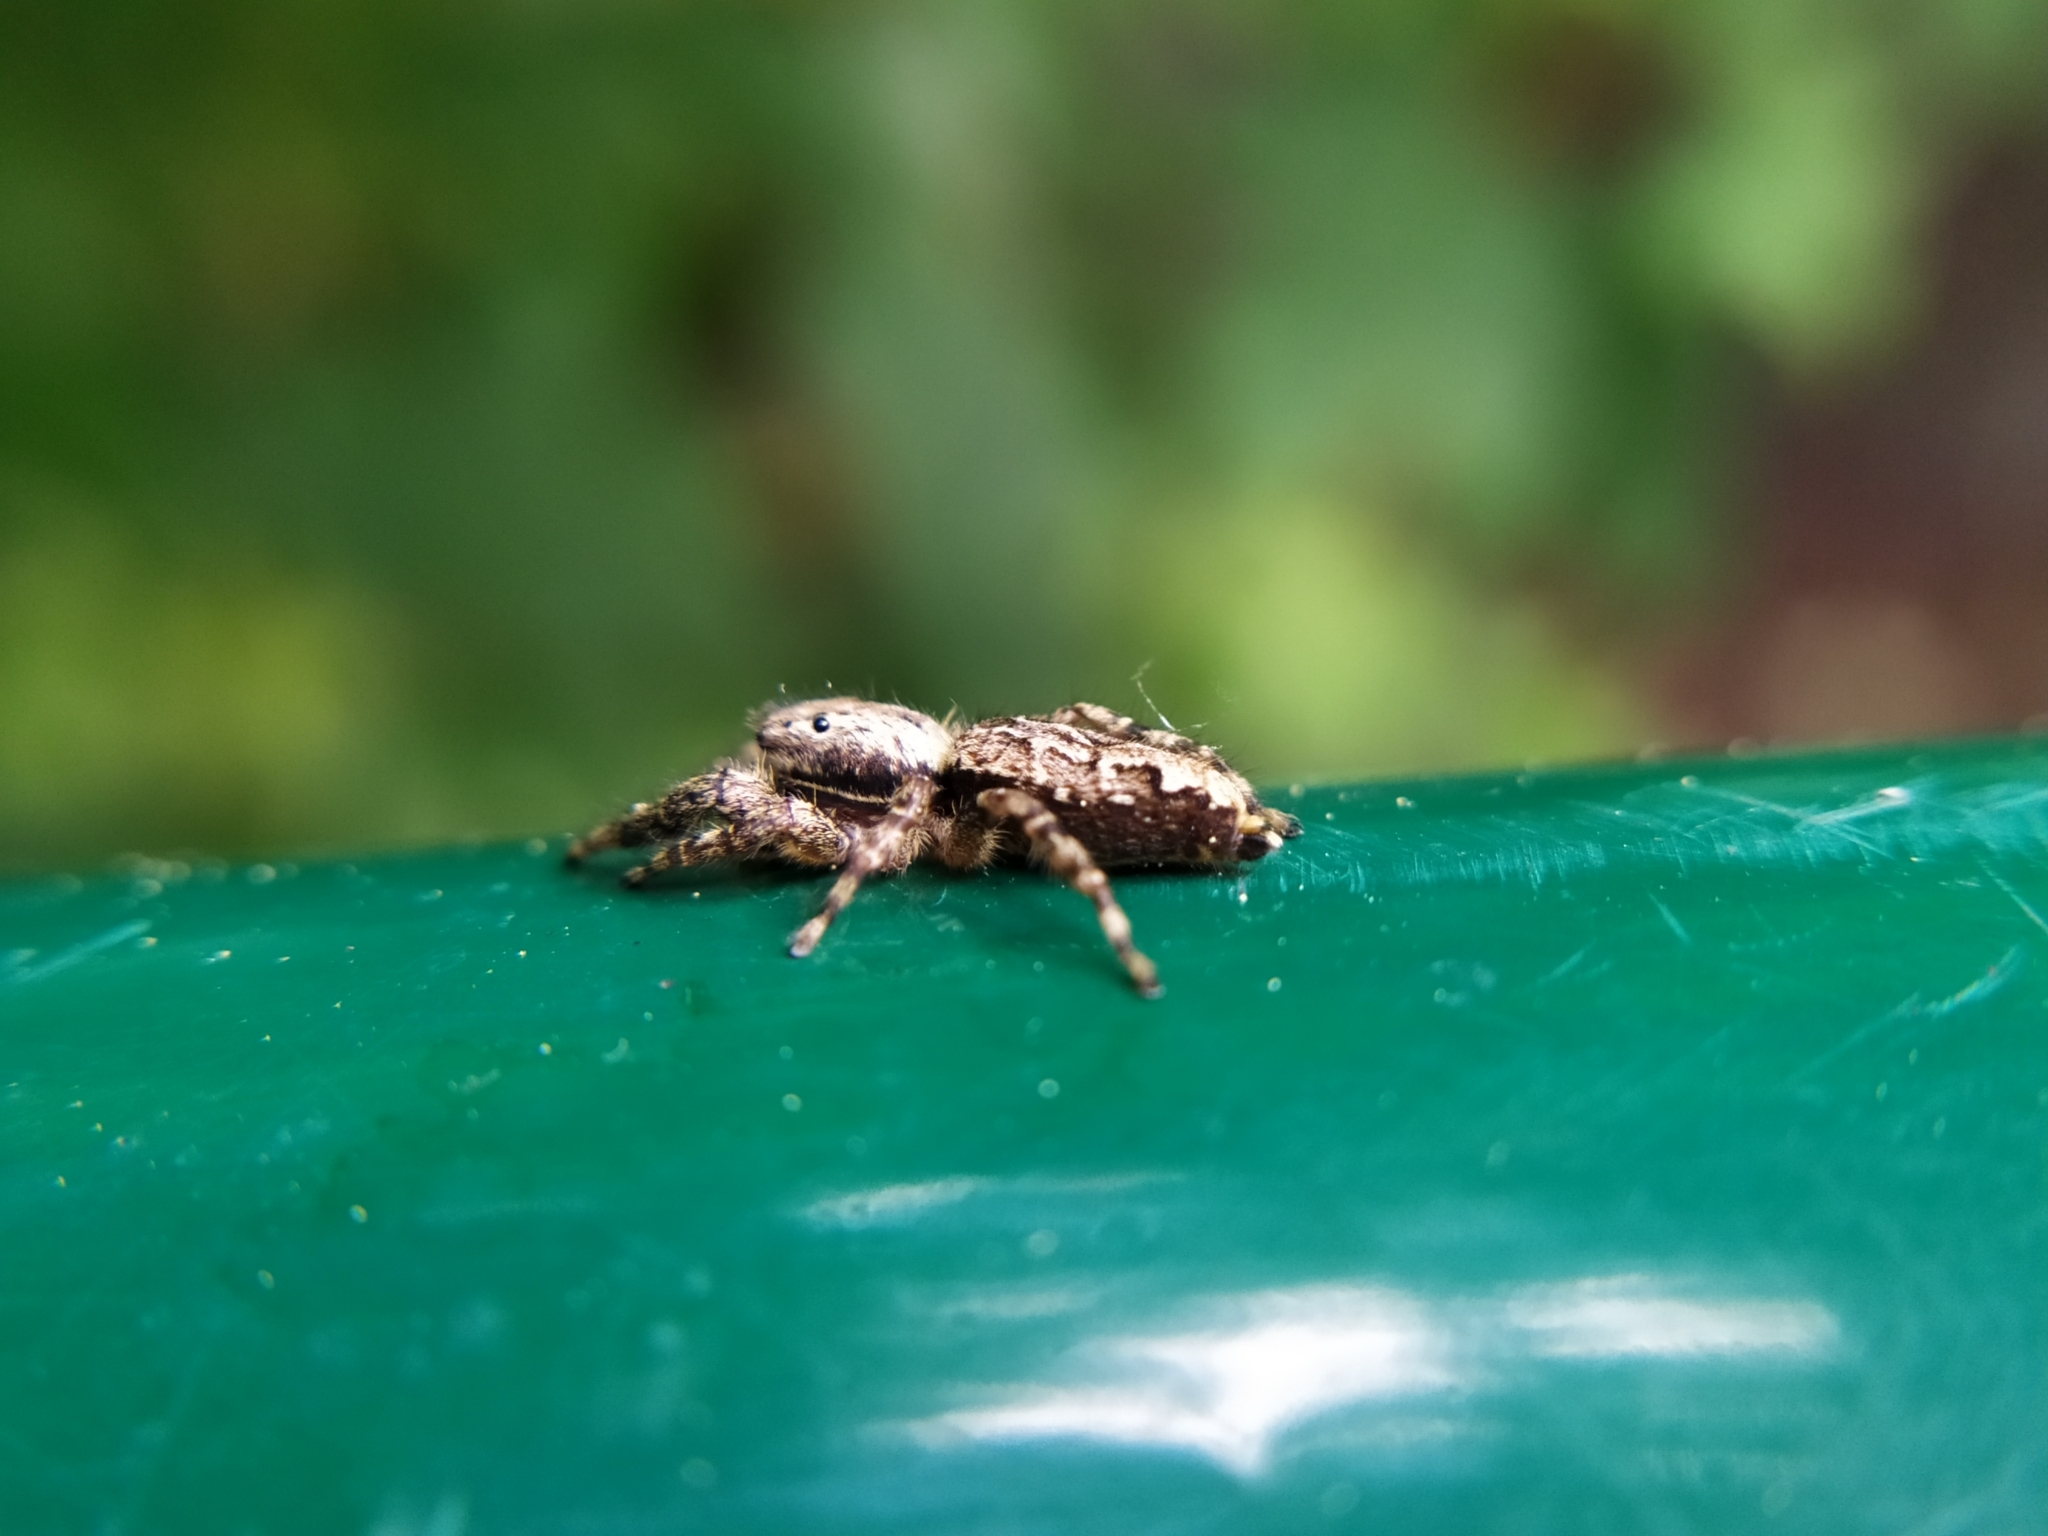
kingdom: Animalia
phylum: Arthropoda
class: Arachnida
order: Araneae
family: Salticidae
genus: Marpissa
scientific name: Marpissa muscosa
